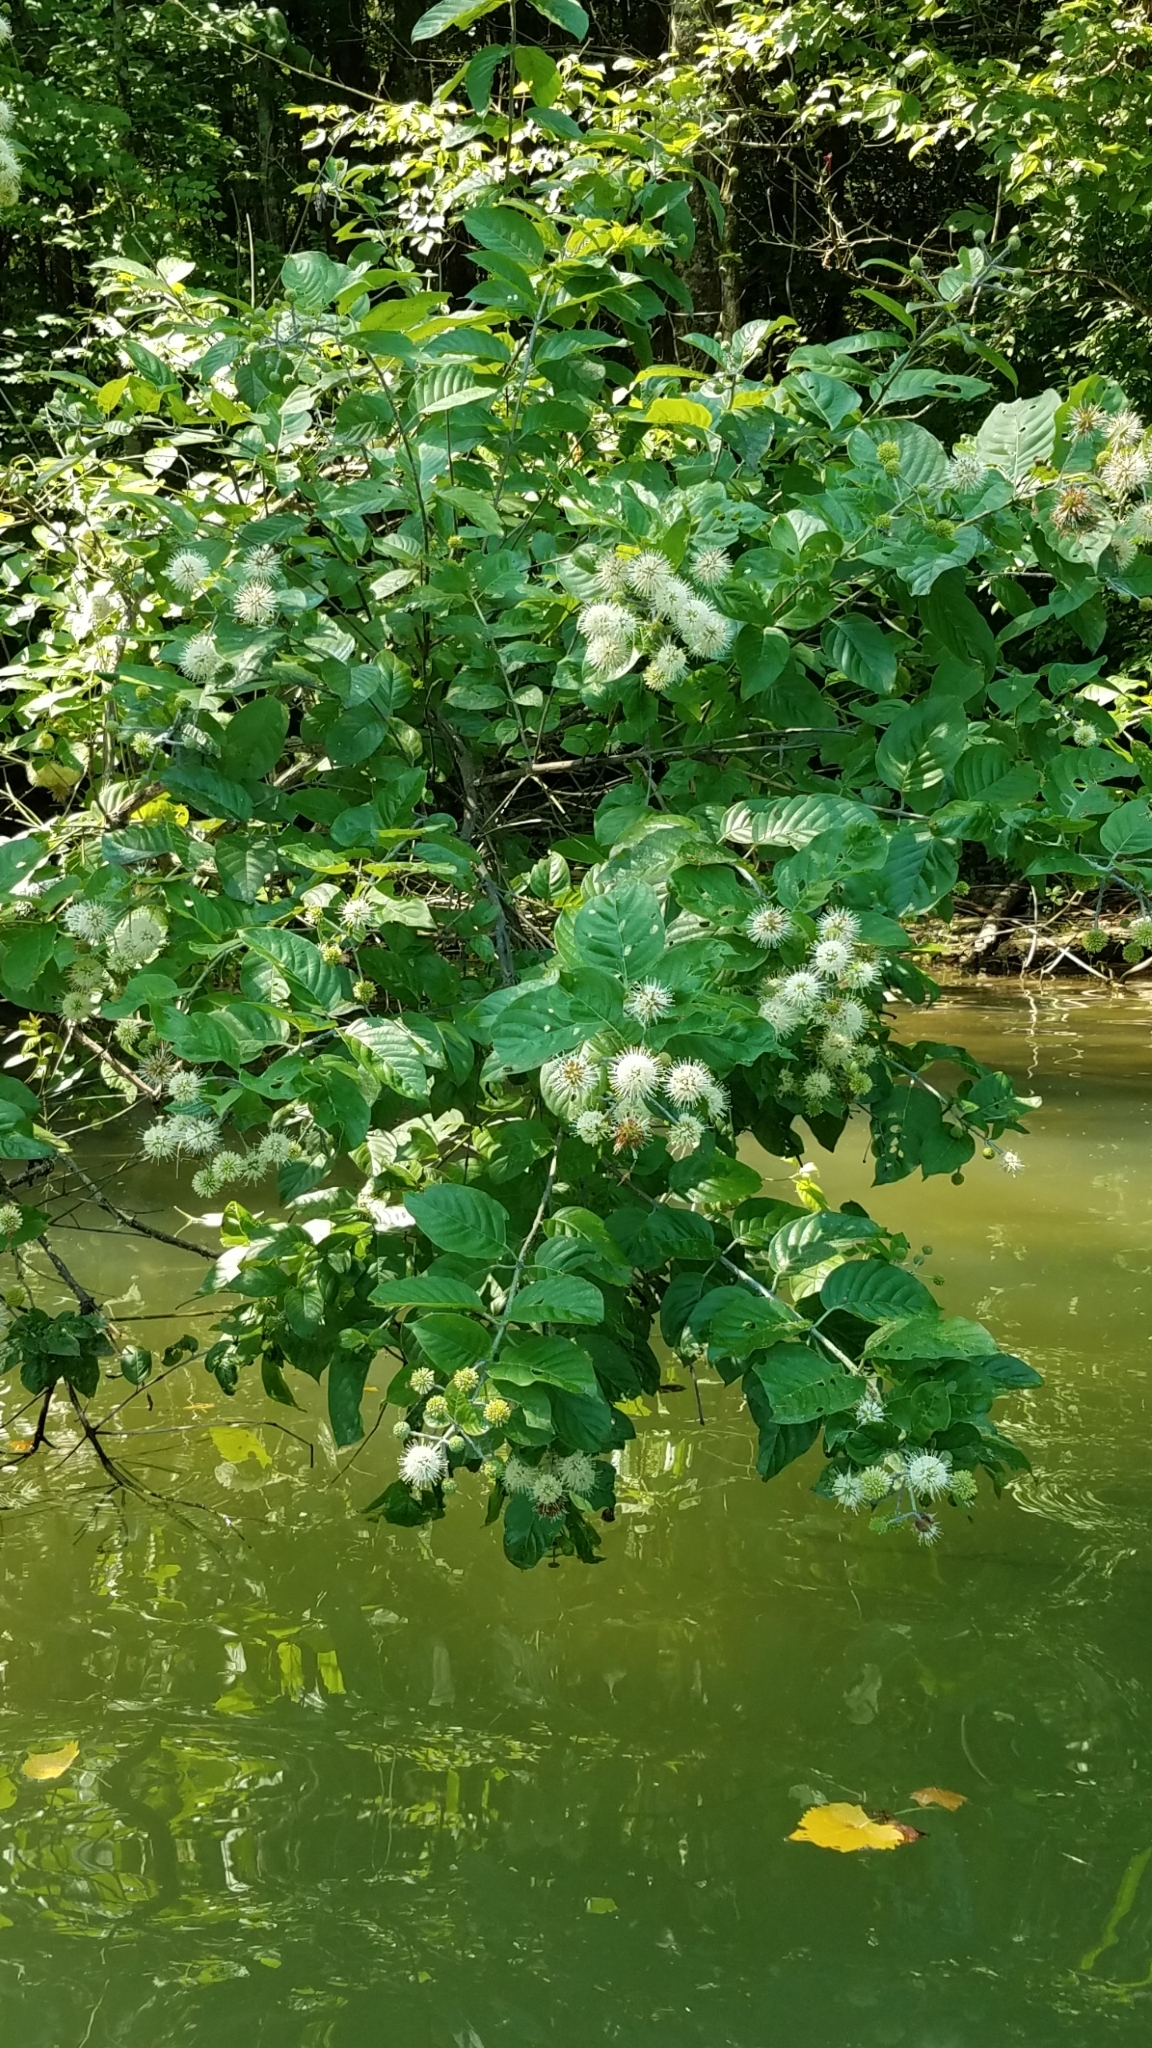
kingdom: Plantae
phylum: Tracheophyta
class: Magnoliopsida
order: Gentianales
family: Rubiaceae
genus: Cephalanthus
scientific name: Cephalanthus occidentalis
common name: Button-willow
